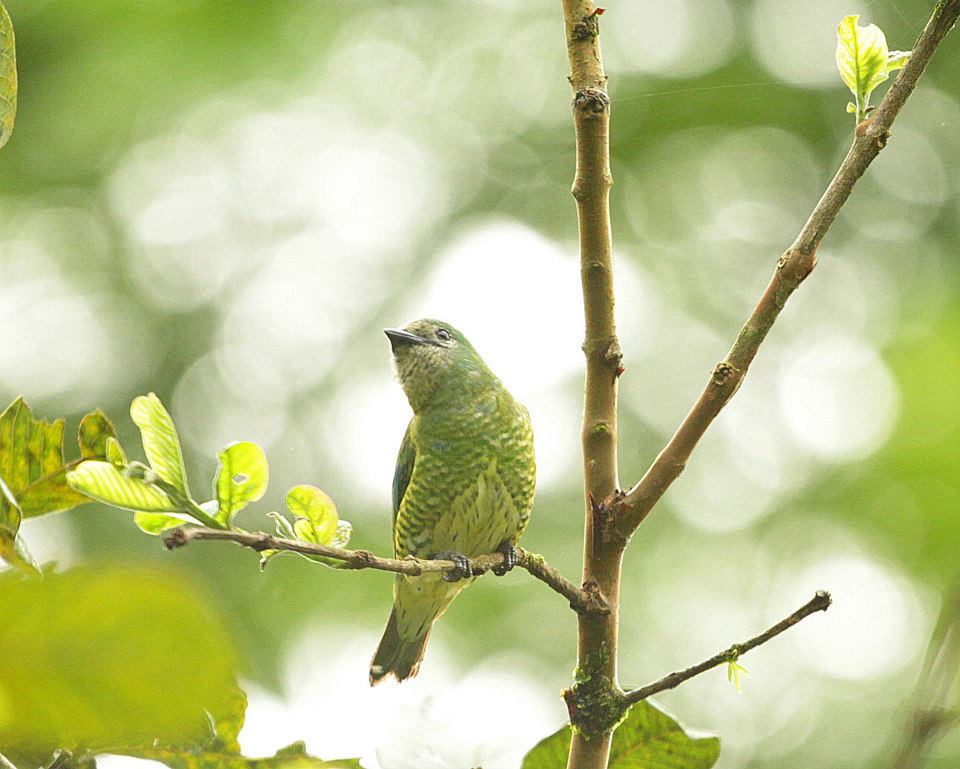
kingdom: Animalia
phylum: Chordata
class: Aves
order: Passeriformes
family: Thraupidae
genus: Tersina
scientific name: Tersina viridis
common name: Swallow tanager
